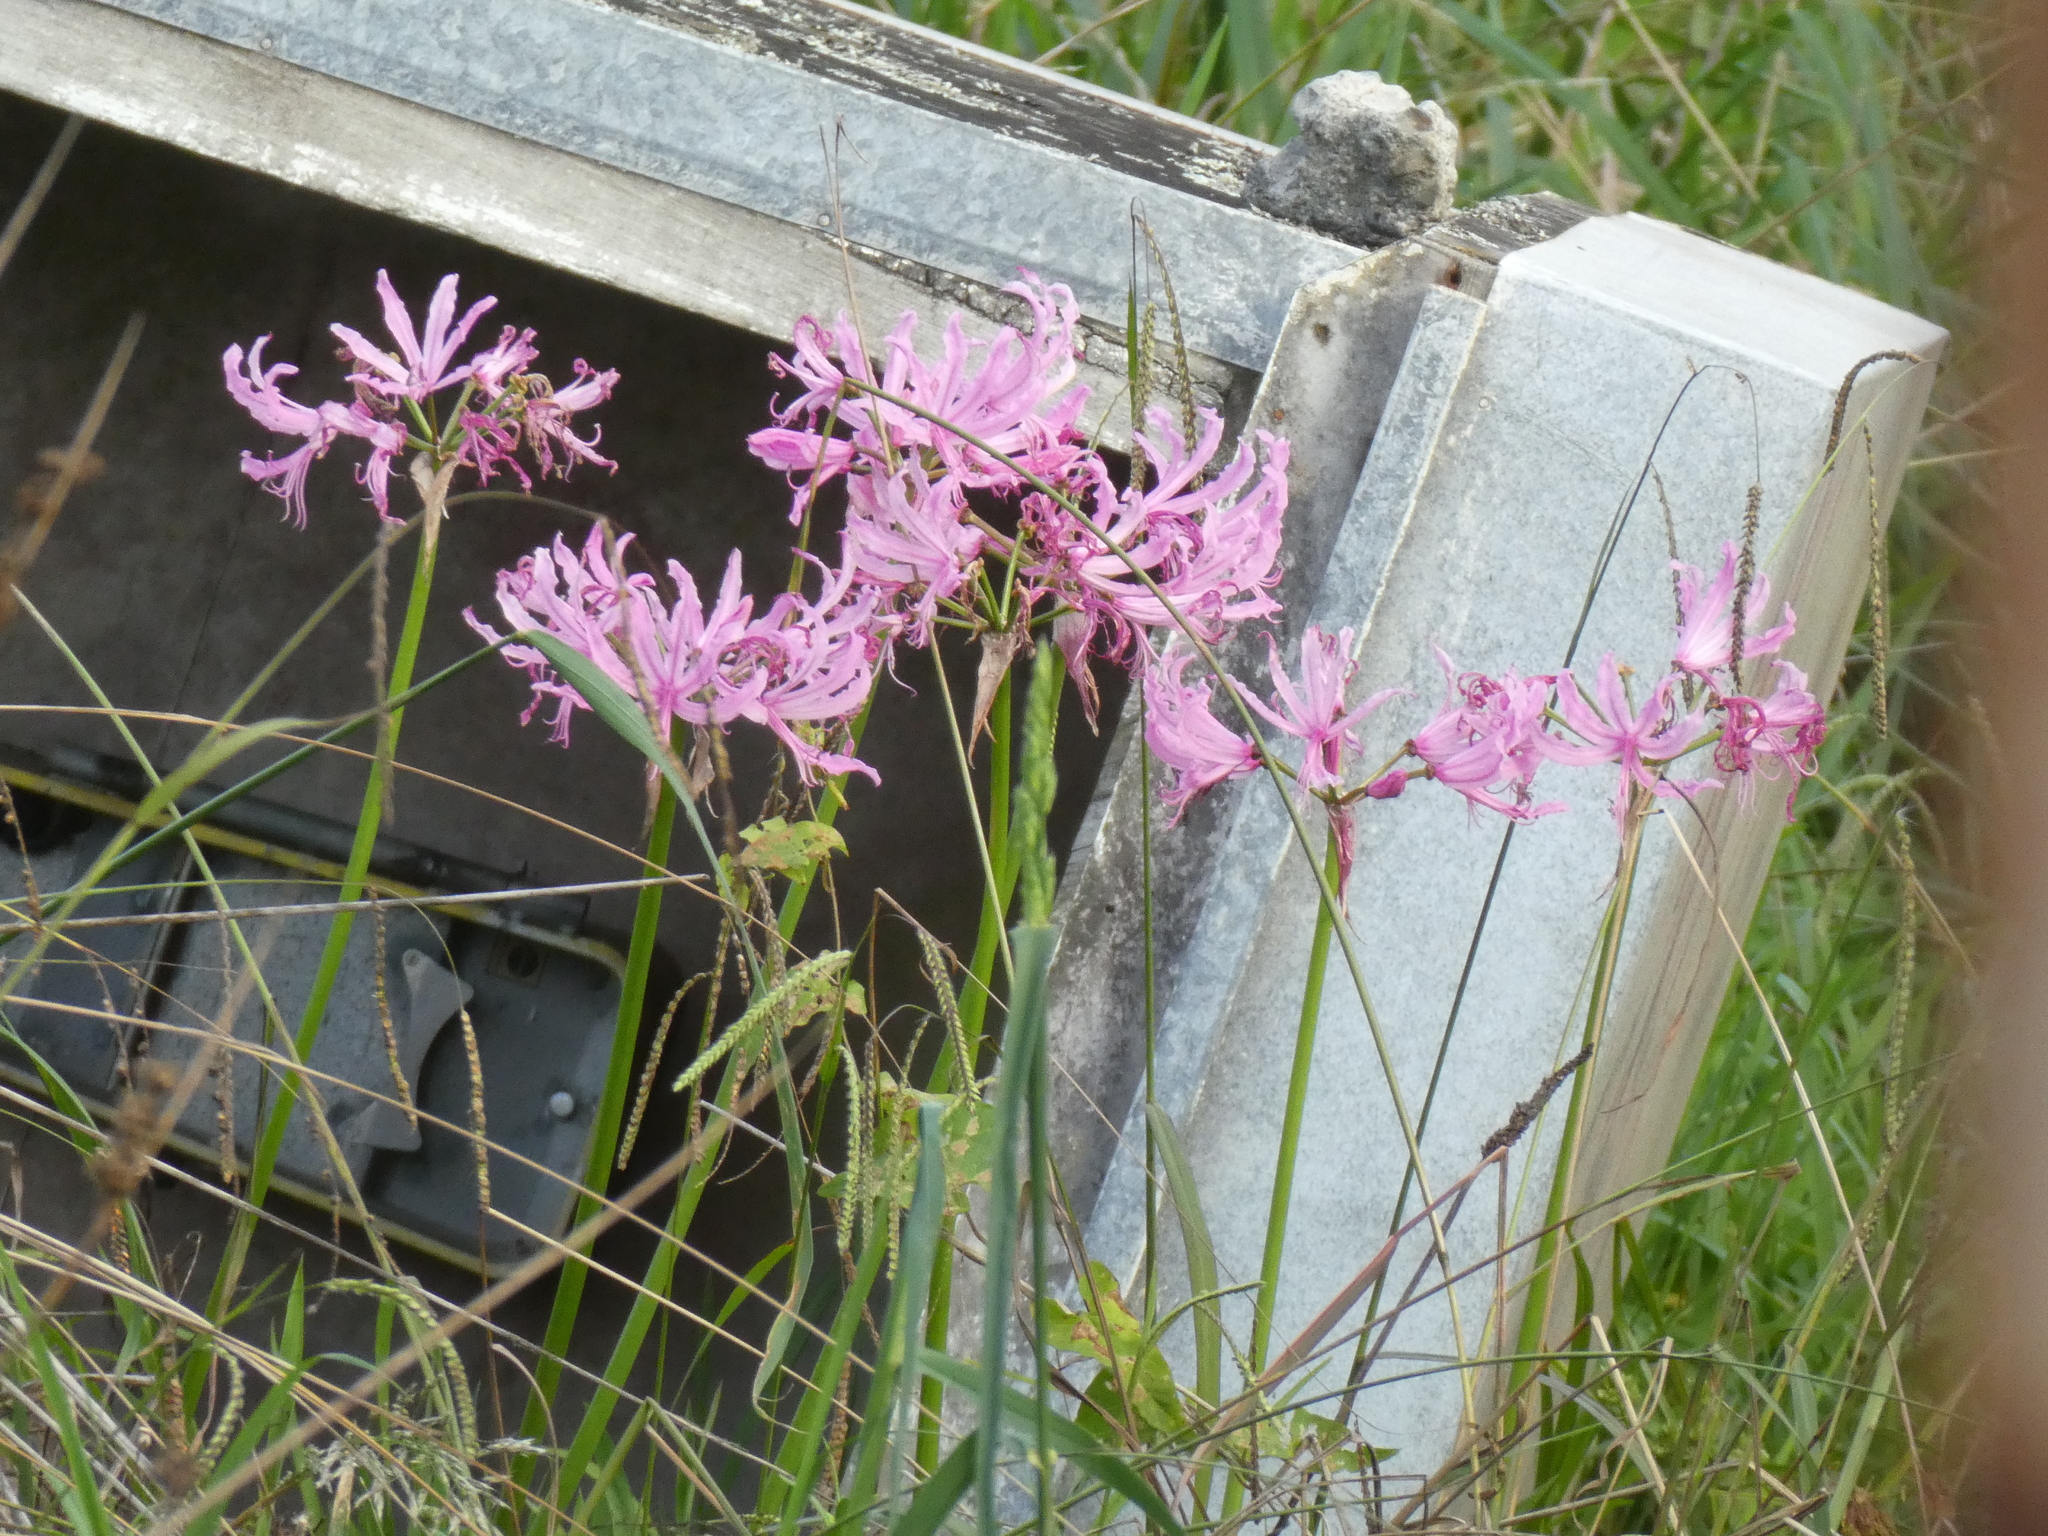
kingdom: Plantae
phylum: Tracheophyta
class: Liliopsida
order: Asparagales
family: Amaryllidaceae
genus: Nerine
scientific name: Nerine bowdenii
